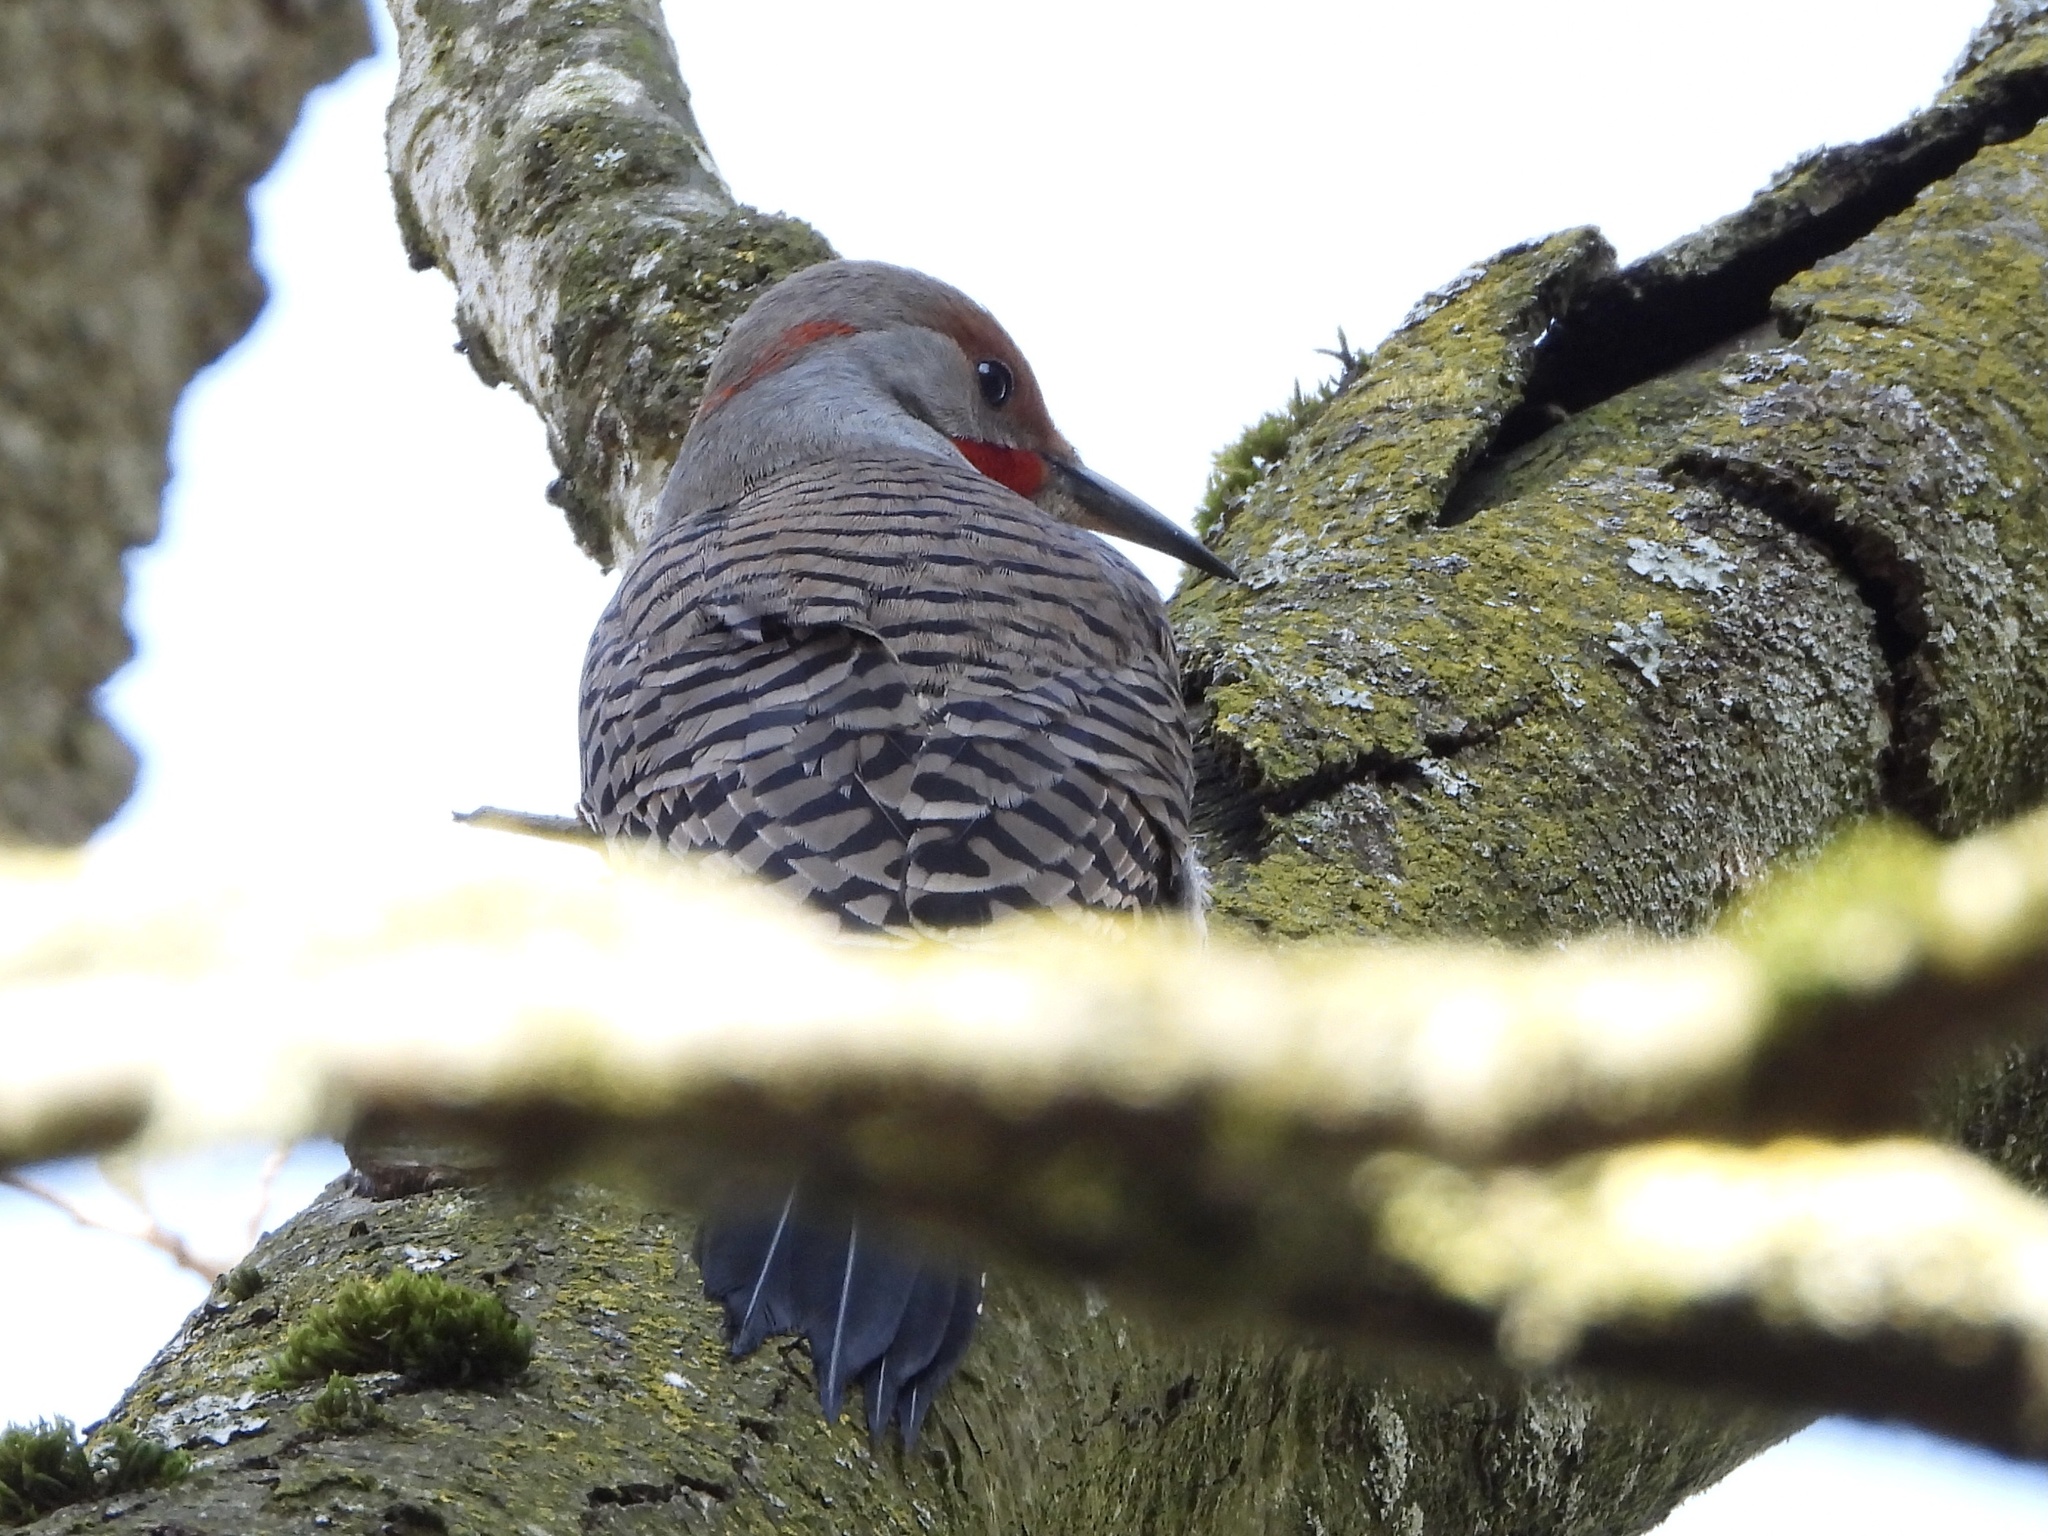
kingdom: Animalia
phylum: Chordata
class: Aves
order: Piciformes
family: Picidae
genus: Colaptes
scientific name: Colaptes
